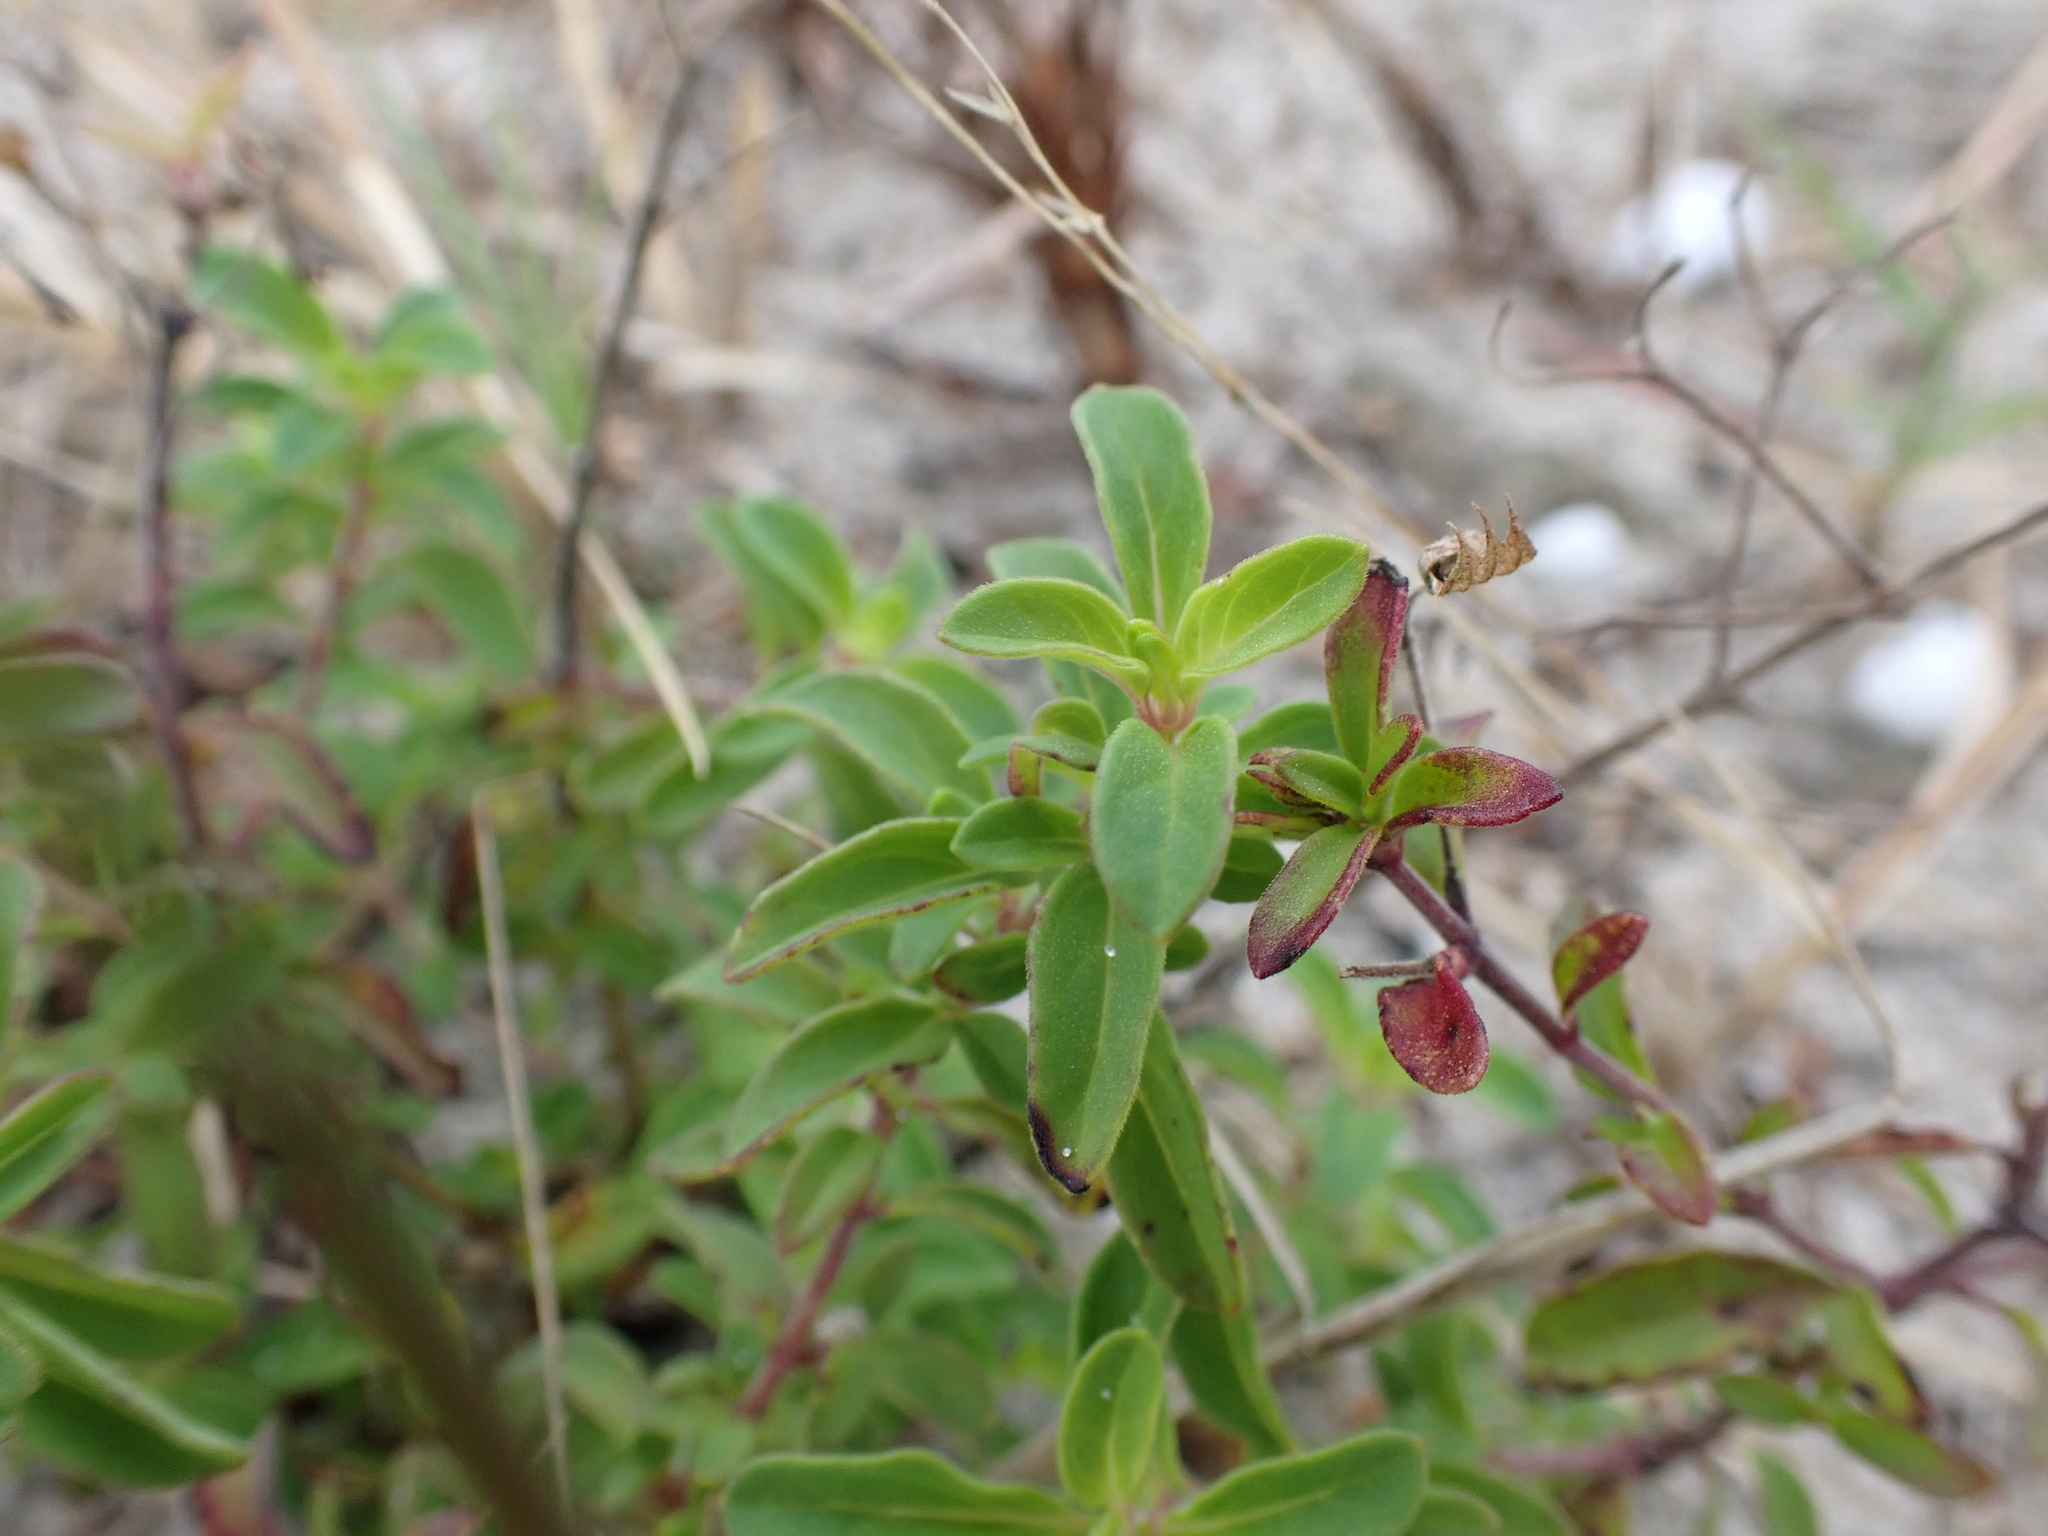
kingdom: Plantae
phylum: Tracheophyta
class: Magnoliopsida
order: Lamiales
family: Lamiaceae
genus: Trichostema
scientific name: Trichostema
